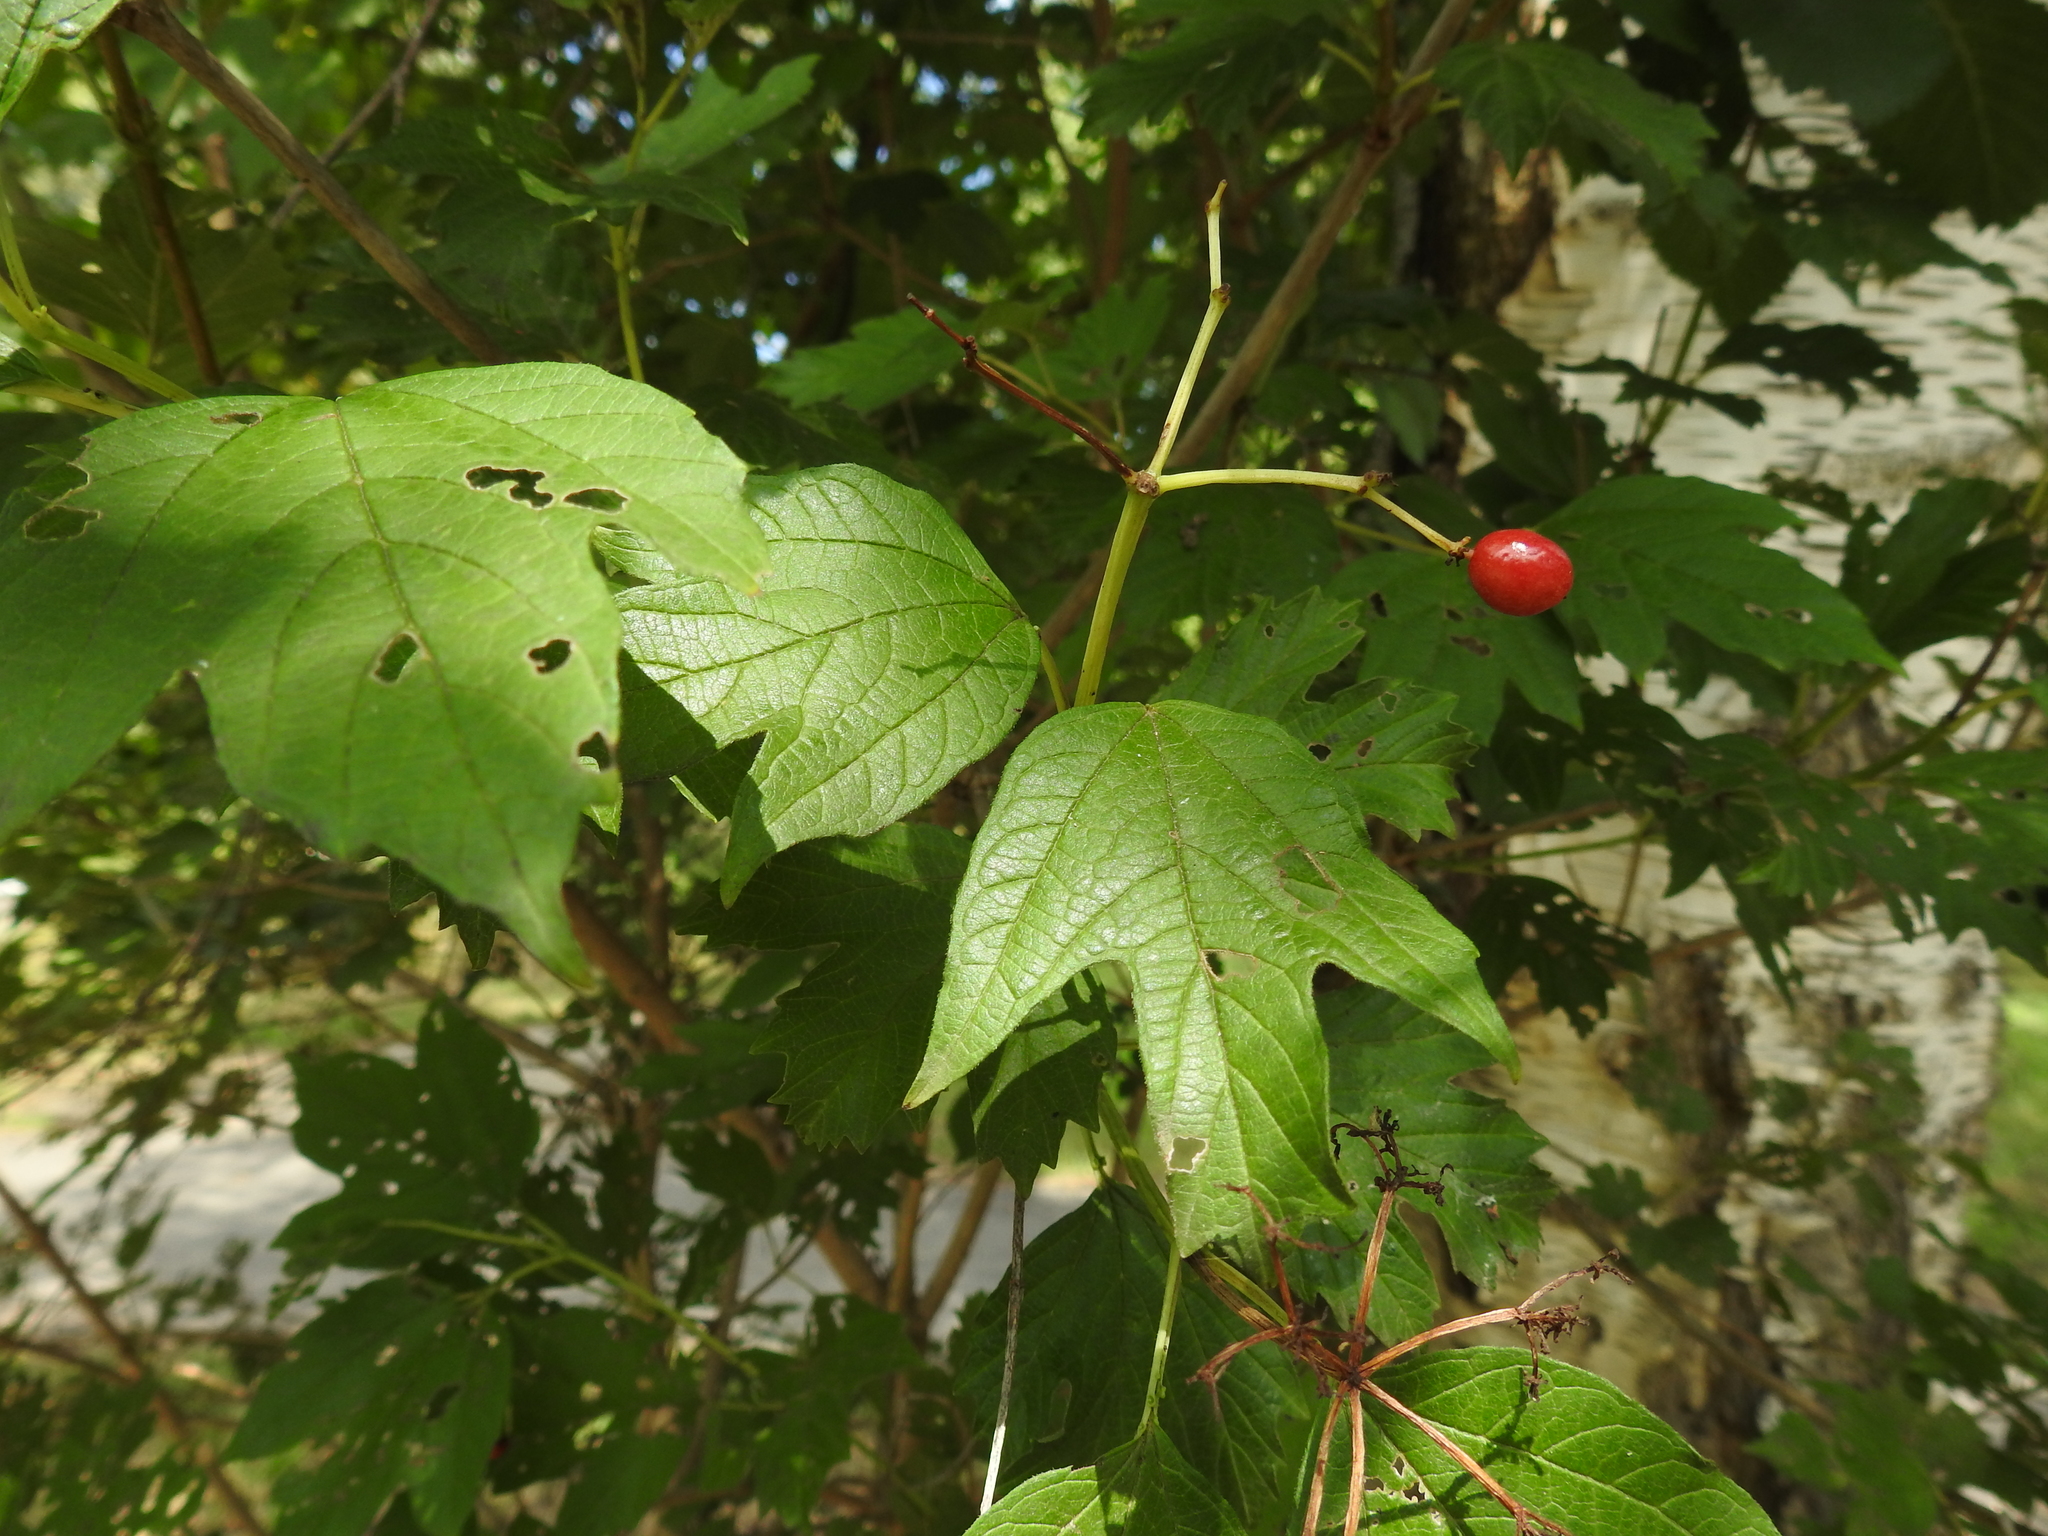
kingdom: Plantae
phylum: Tracheophyta
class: Magnoliopsida
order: Dipsacales
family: Viburnaceae
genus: Viburnum
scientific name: Viburnum opulus
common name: Guelder-rose
